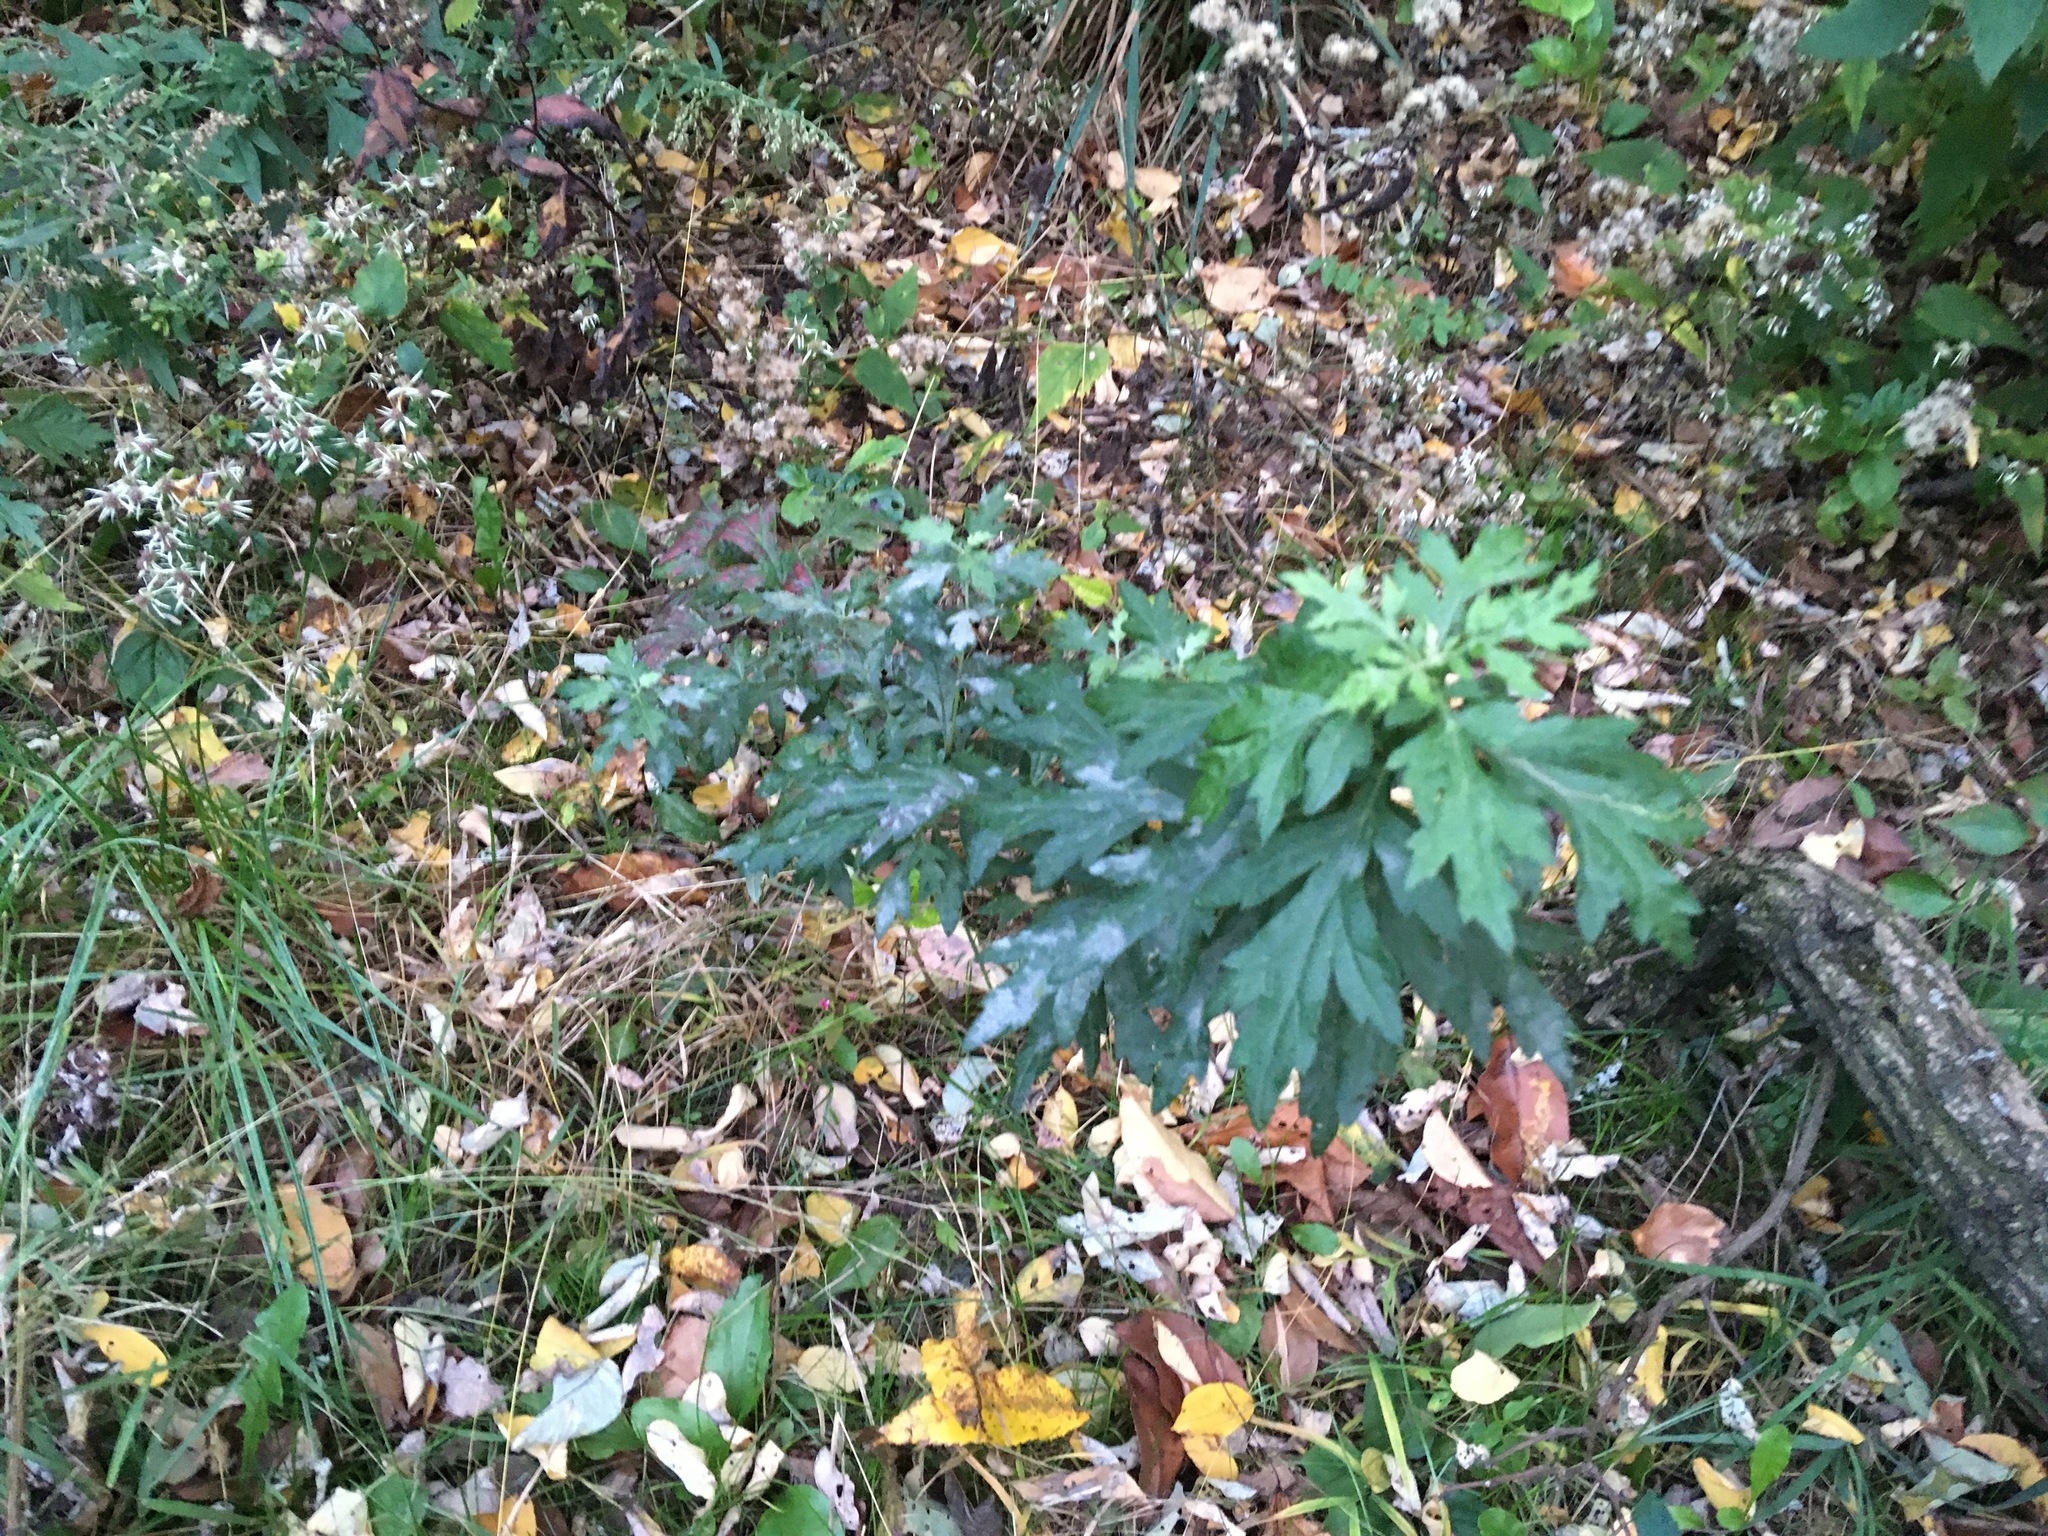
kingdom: Plantae
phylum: Tracheophyta
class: Magnoliopsida
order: Asterales
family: Asteraceae
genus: Artemisia
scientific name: Artemisia vulgaris
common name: Mugwort
